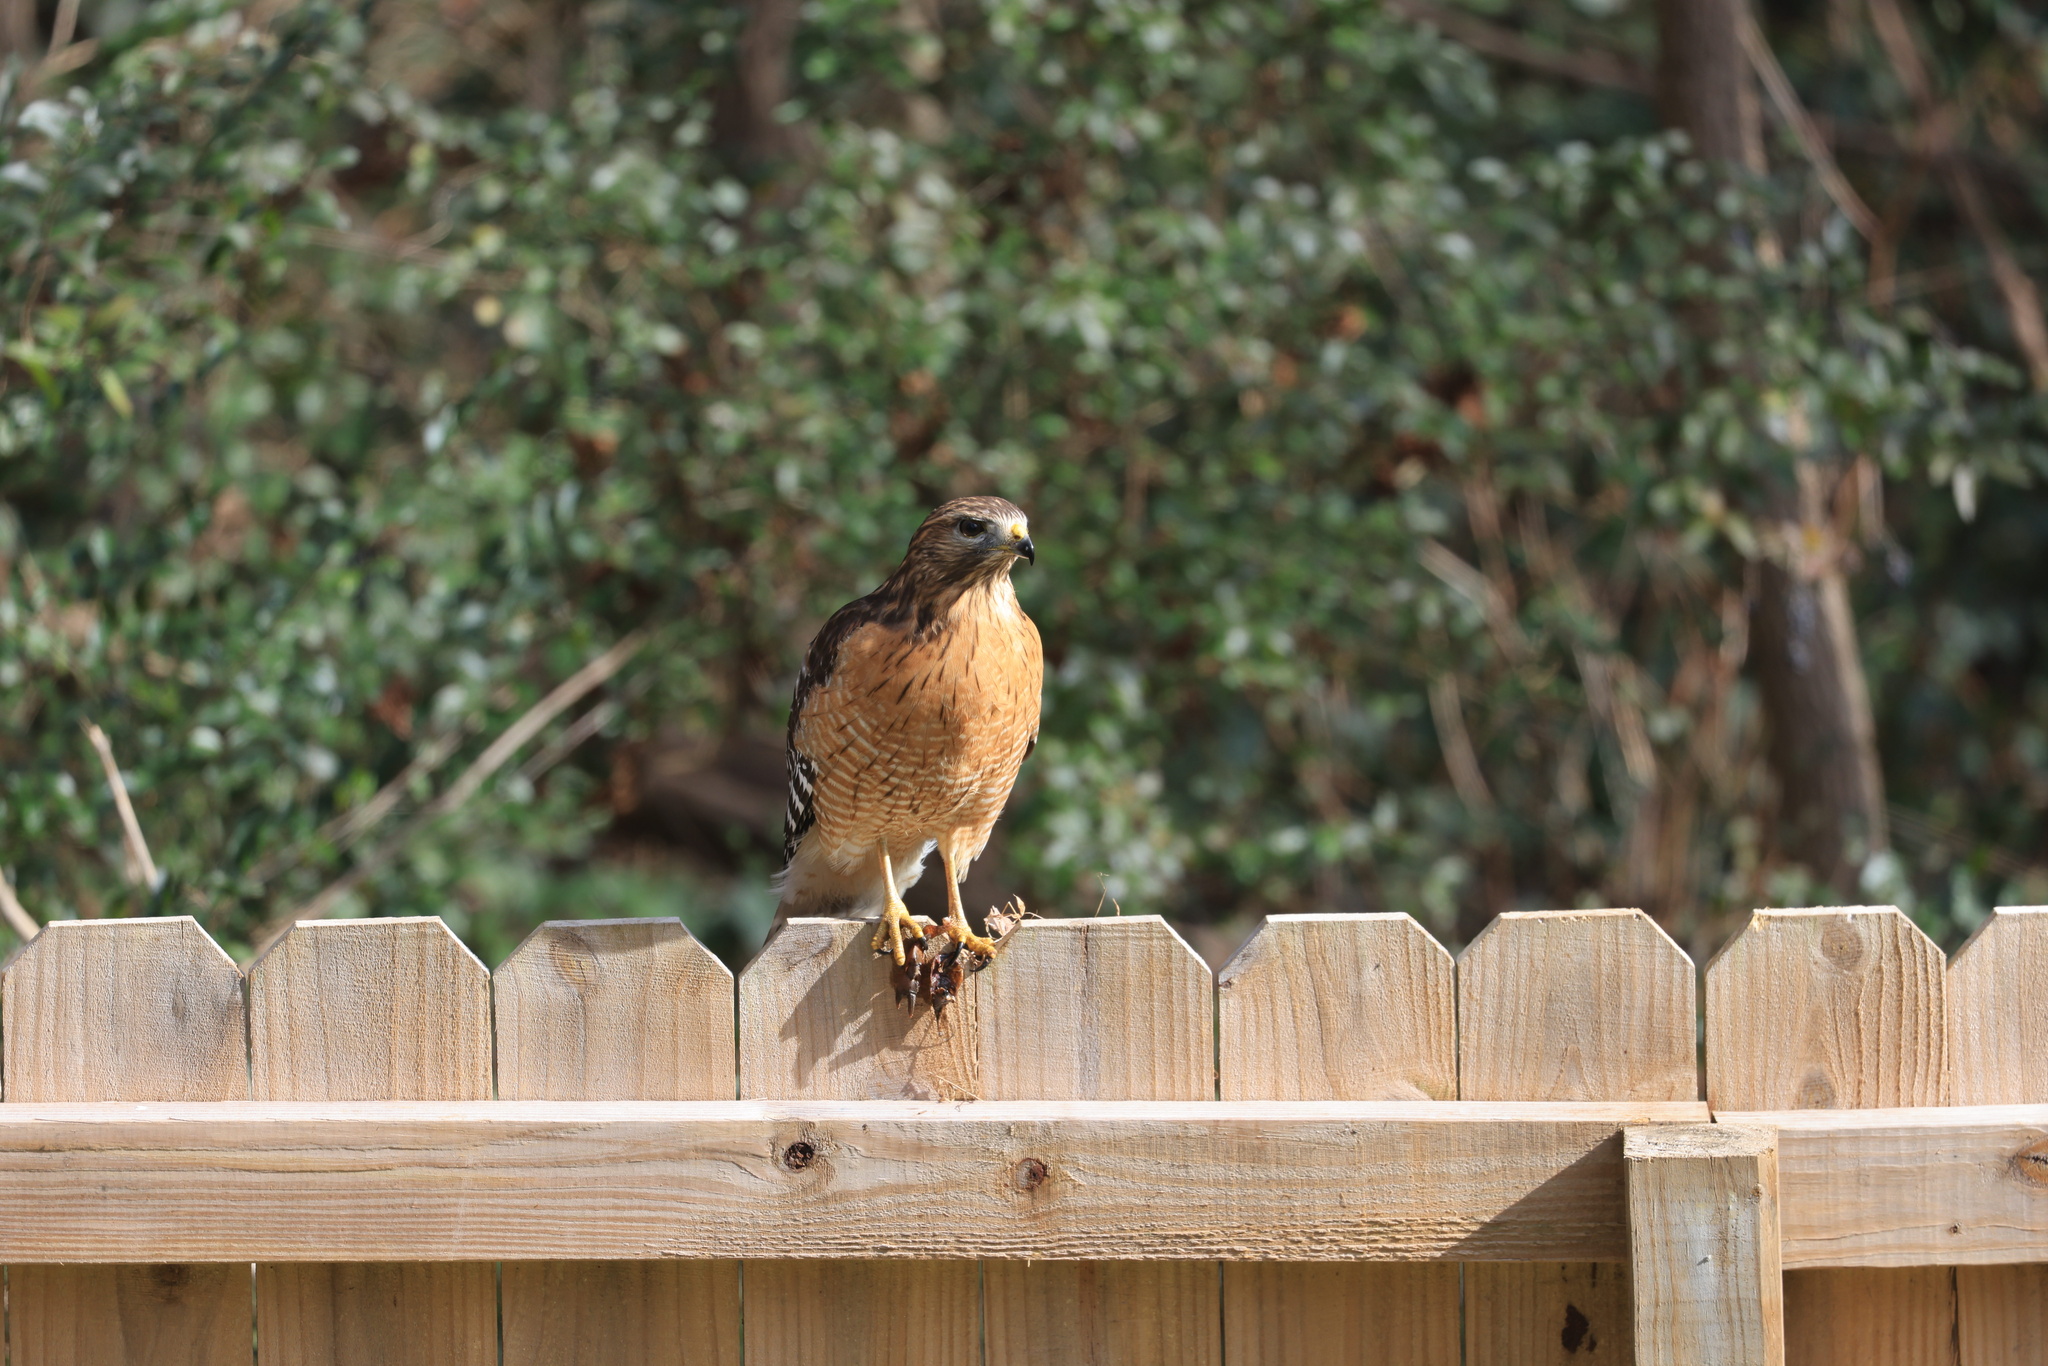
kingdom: Animalia
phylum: Chordata
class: Aves
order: Accipitriformes
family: Accipitridae
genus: Buteo
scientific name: Buteo lineatus
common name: Red-shouldered hawk
